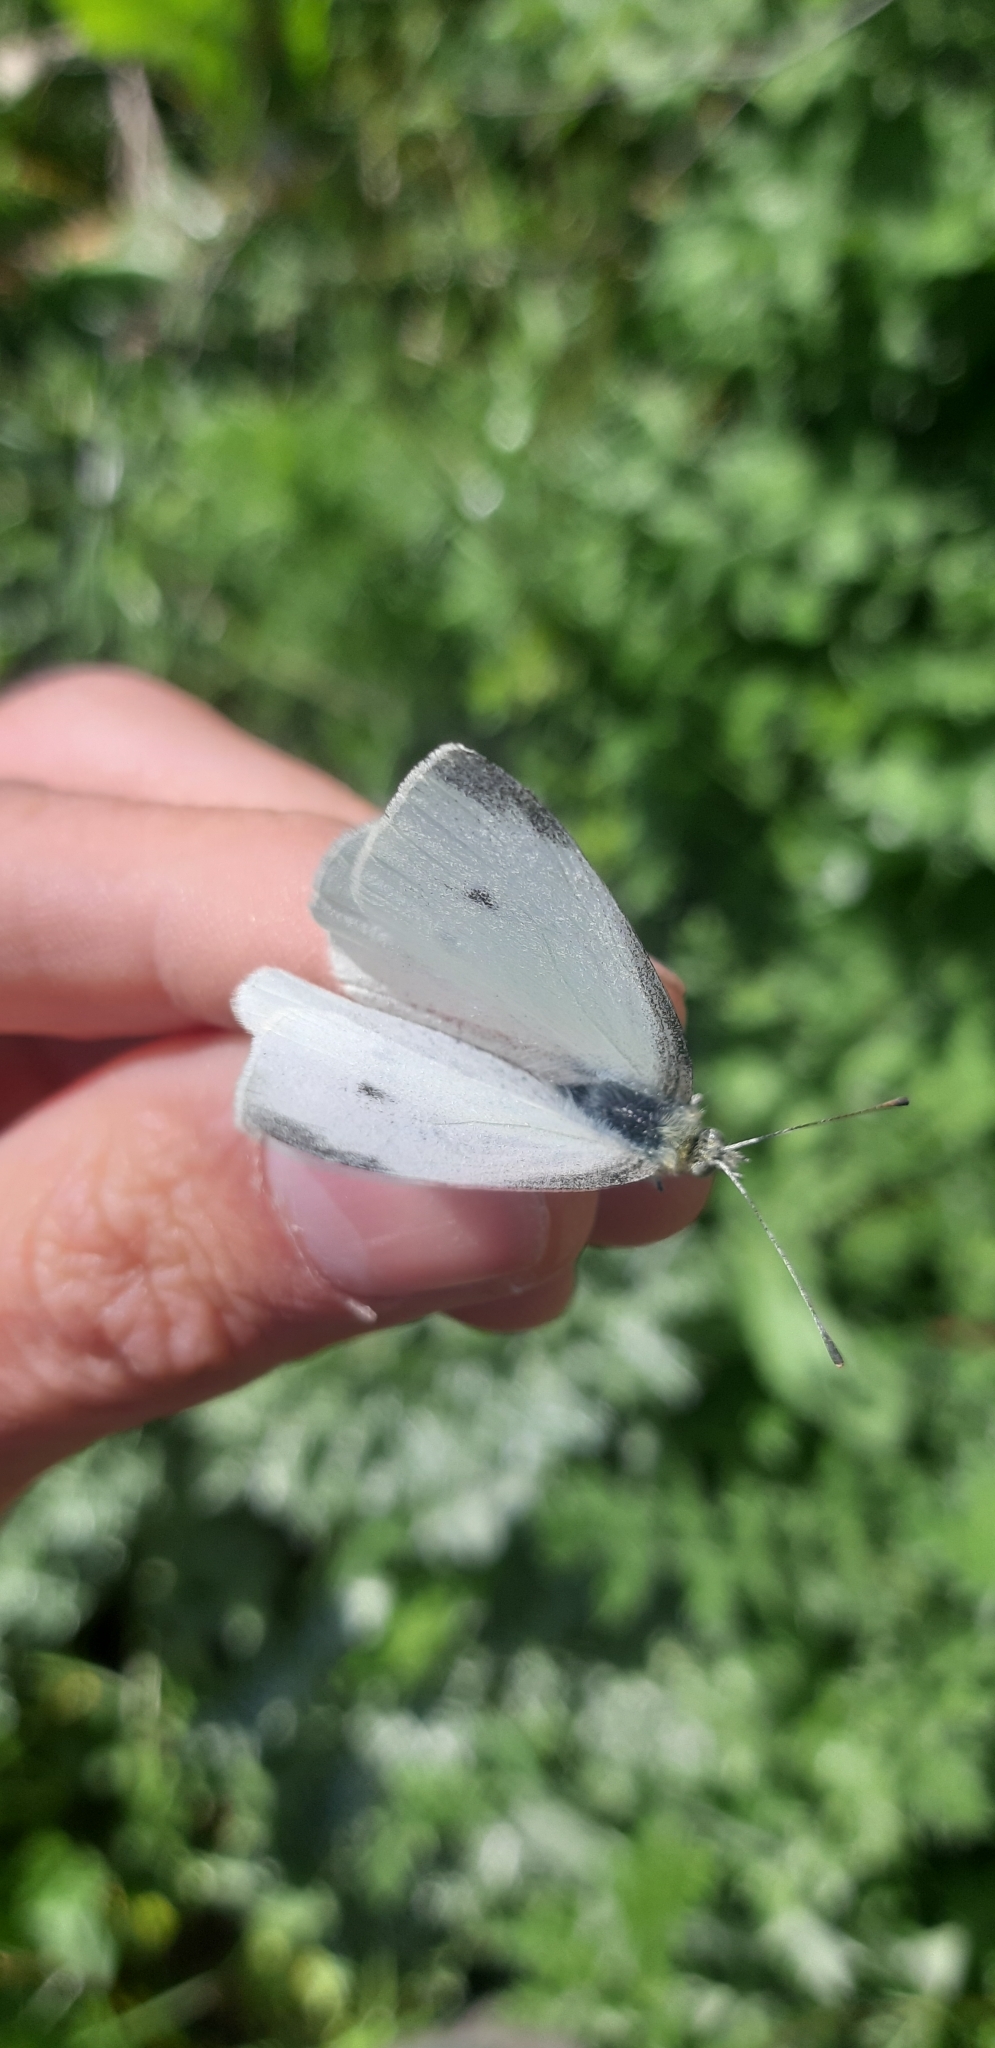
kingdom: Animalia
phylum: Arthropoda
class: Insecta
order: Lepidoptera
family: Pieridae
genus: Pieris
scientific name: Pieris rapae
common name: Small white
